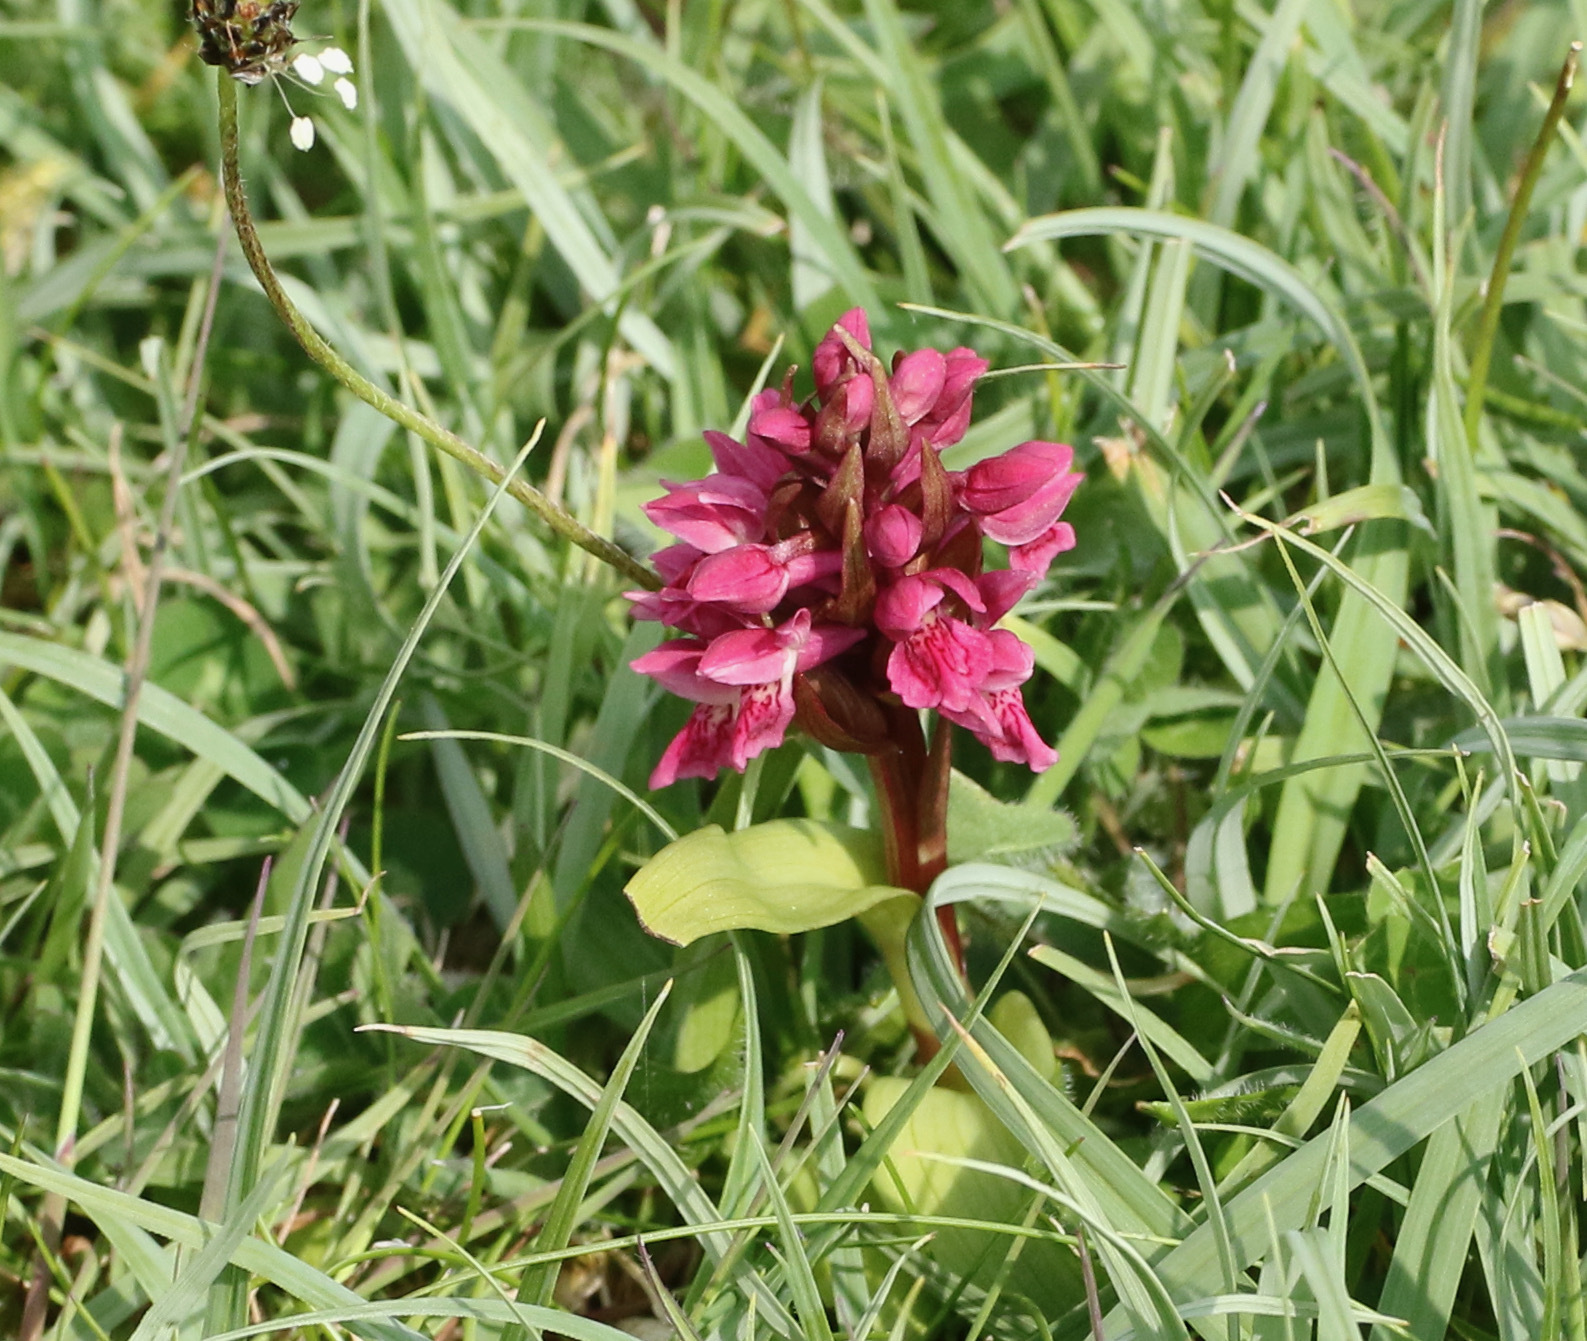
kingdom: Plantae
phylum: Tracheophyta
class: Liliopsida
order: Asparagales
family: Orchidaceae
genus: Dactylorhiza
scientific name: Dactylorhiza incarnata
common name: Early marsh-orchid
